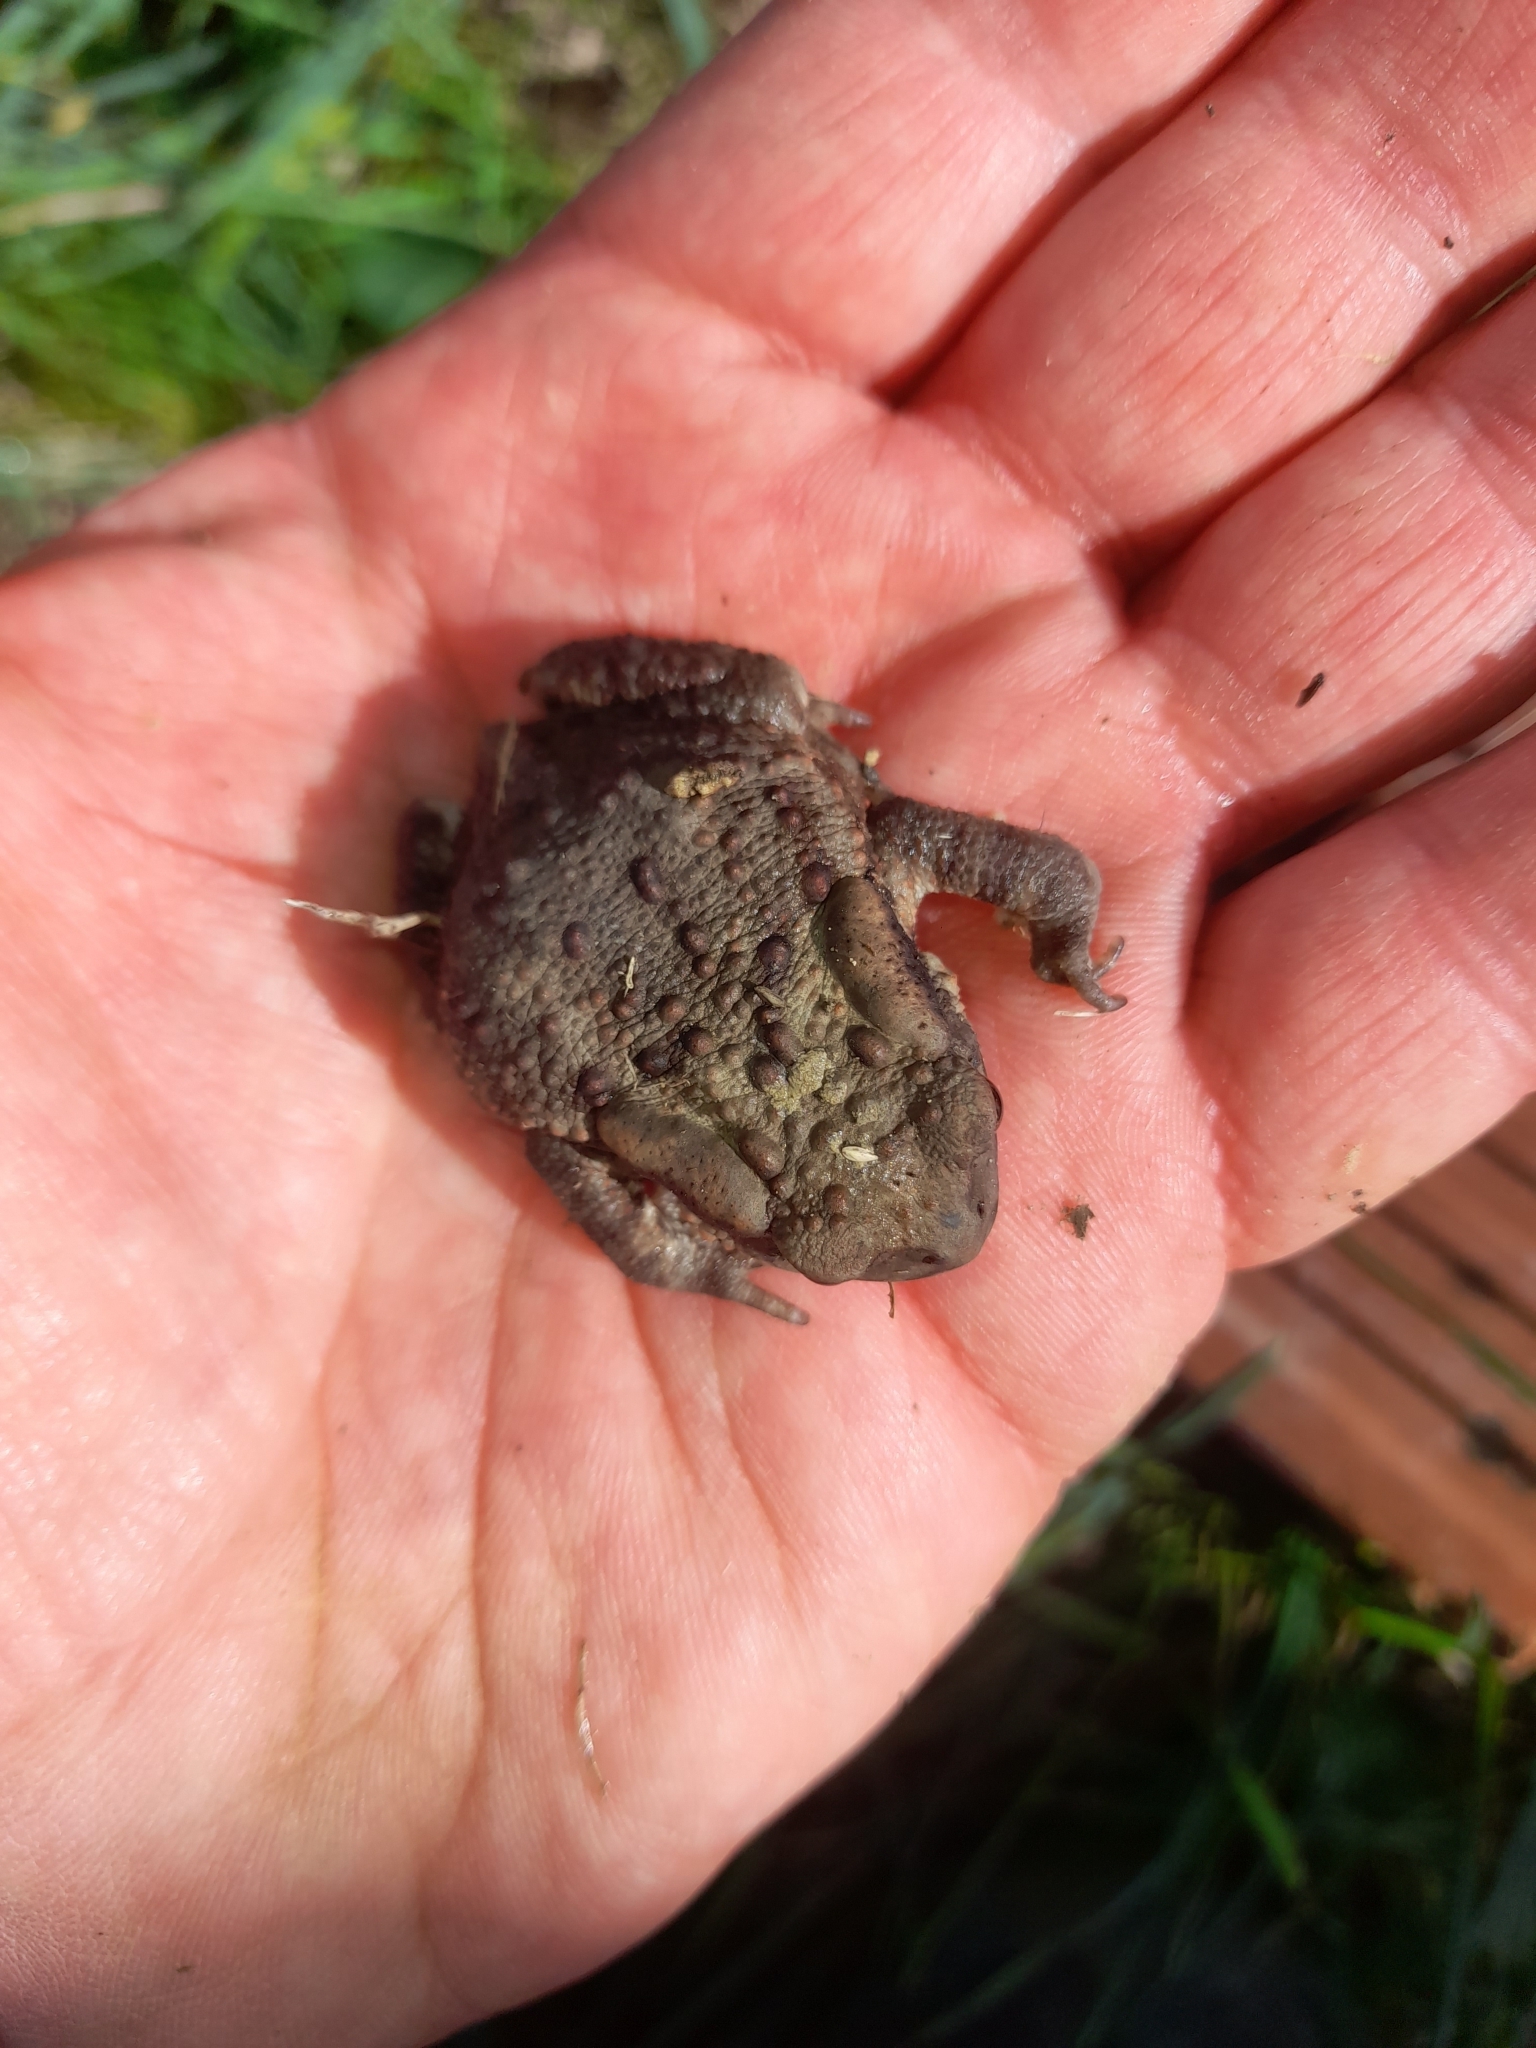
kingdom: Animalia
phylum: Chordata
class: Amphibia
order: Anura
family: Bufonidae
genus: Bufo
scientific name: Bufo bufo
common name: Common toad
